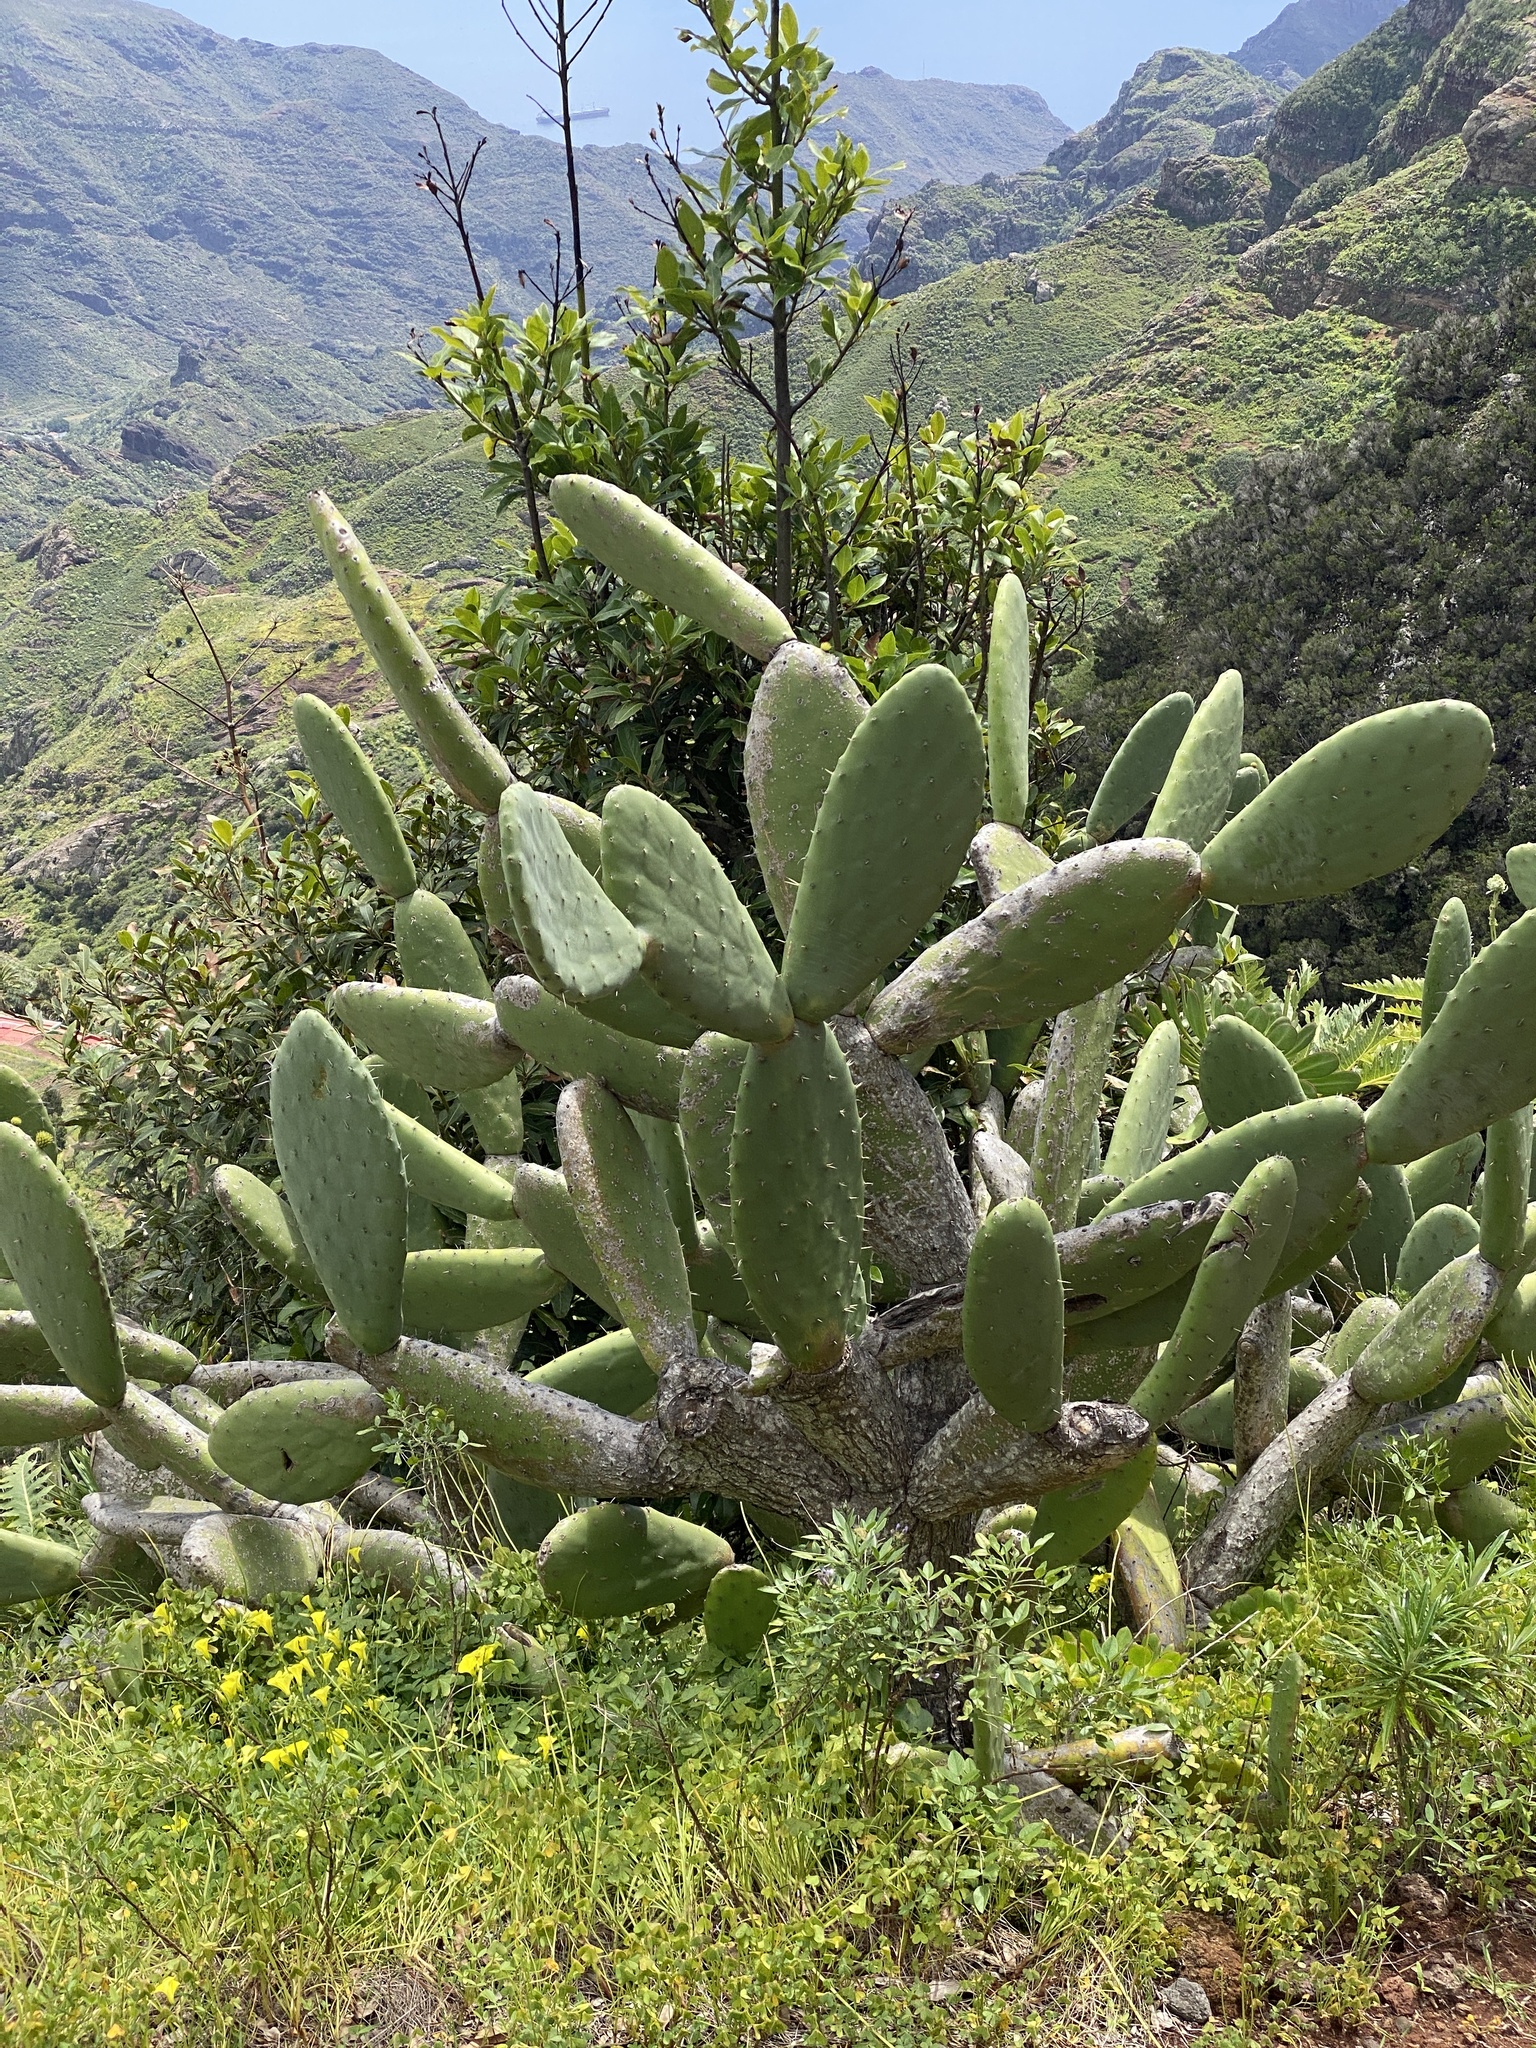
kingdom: Plantae
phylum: Tracheophyta
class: Magnoliopsida
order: Caryophyllales
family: Cactaceae
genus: Opuntia
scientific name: Opuntia ficus-indica
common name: Barbary fig
